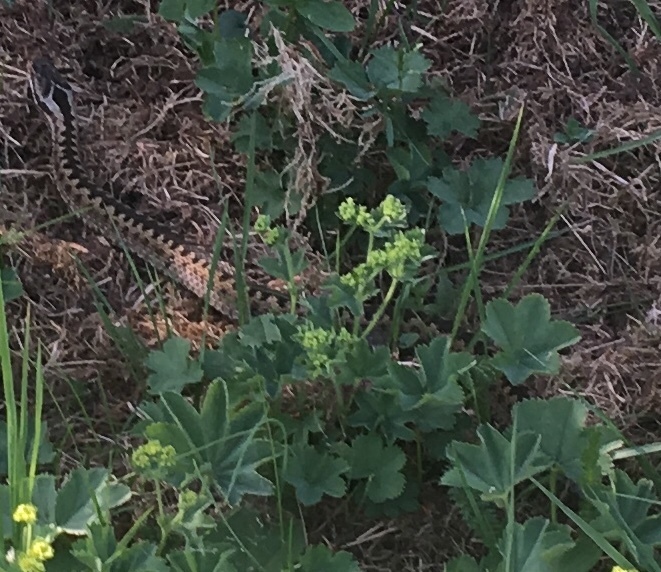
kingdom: Animalia
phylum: Chordata
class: Squamata
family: Viperidae
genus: Vipera
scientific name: Vipera berus
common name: Adder
